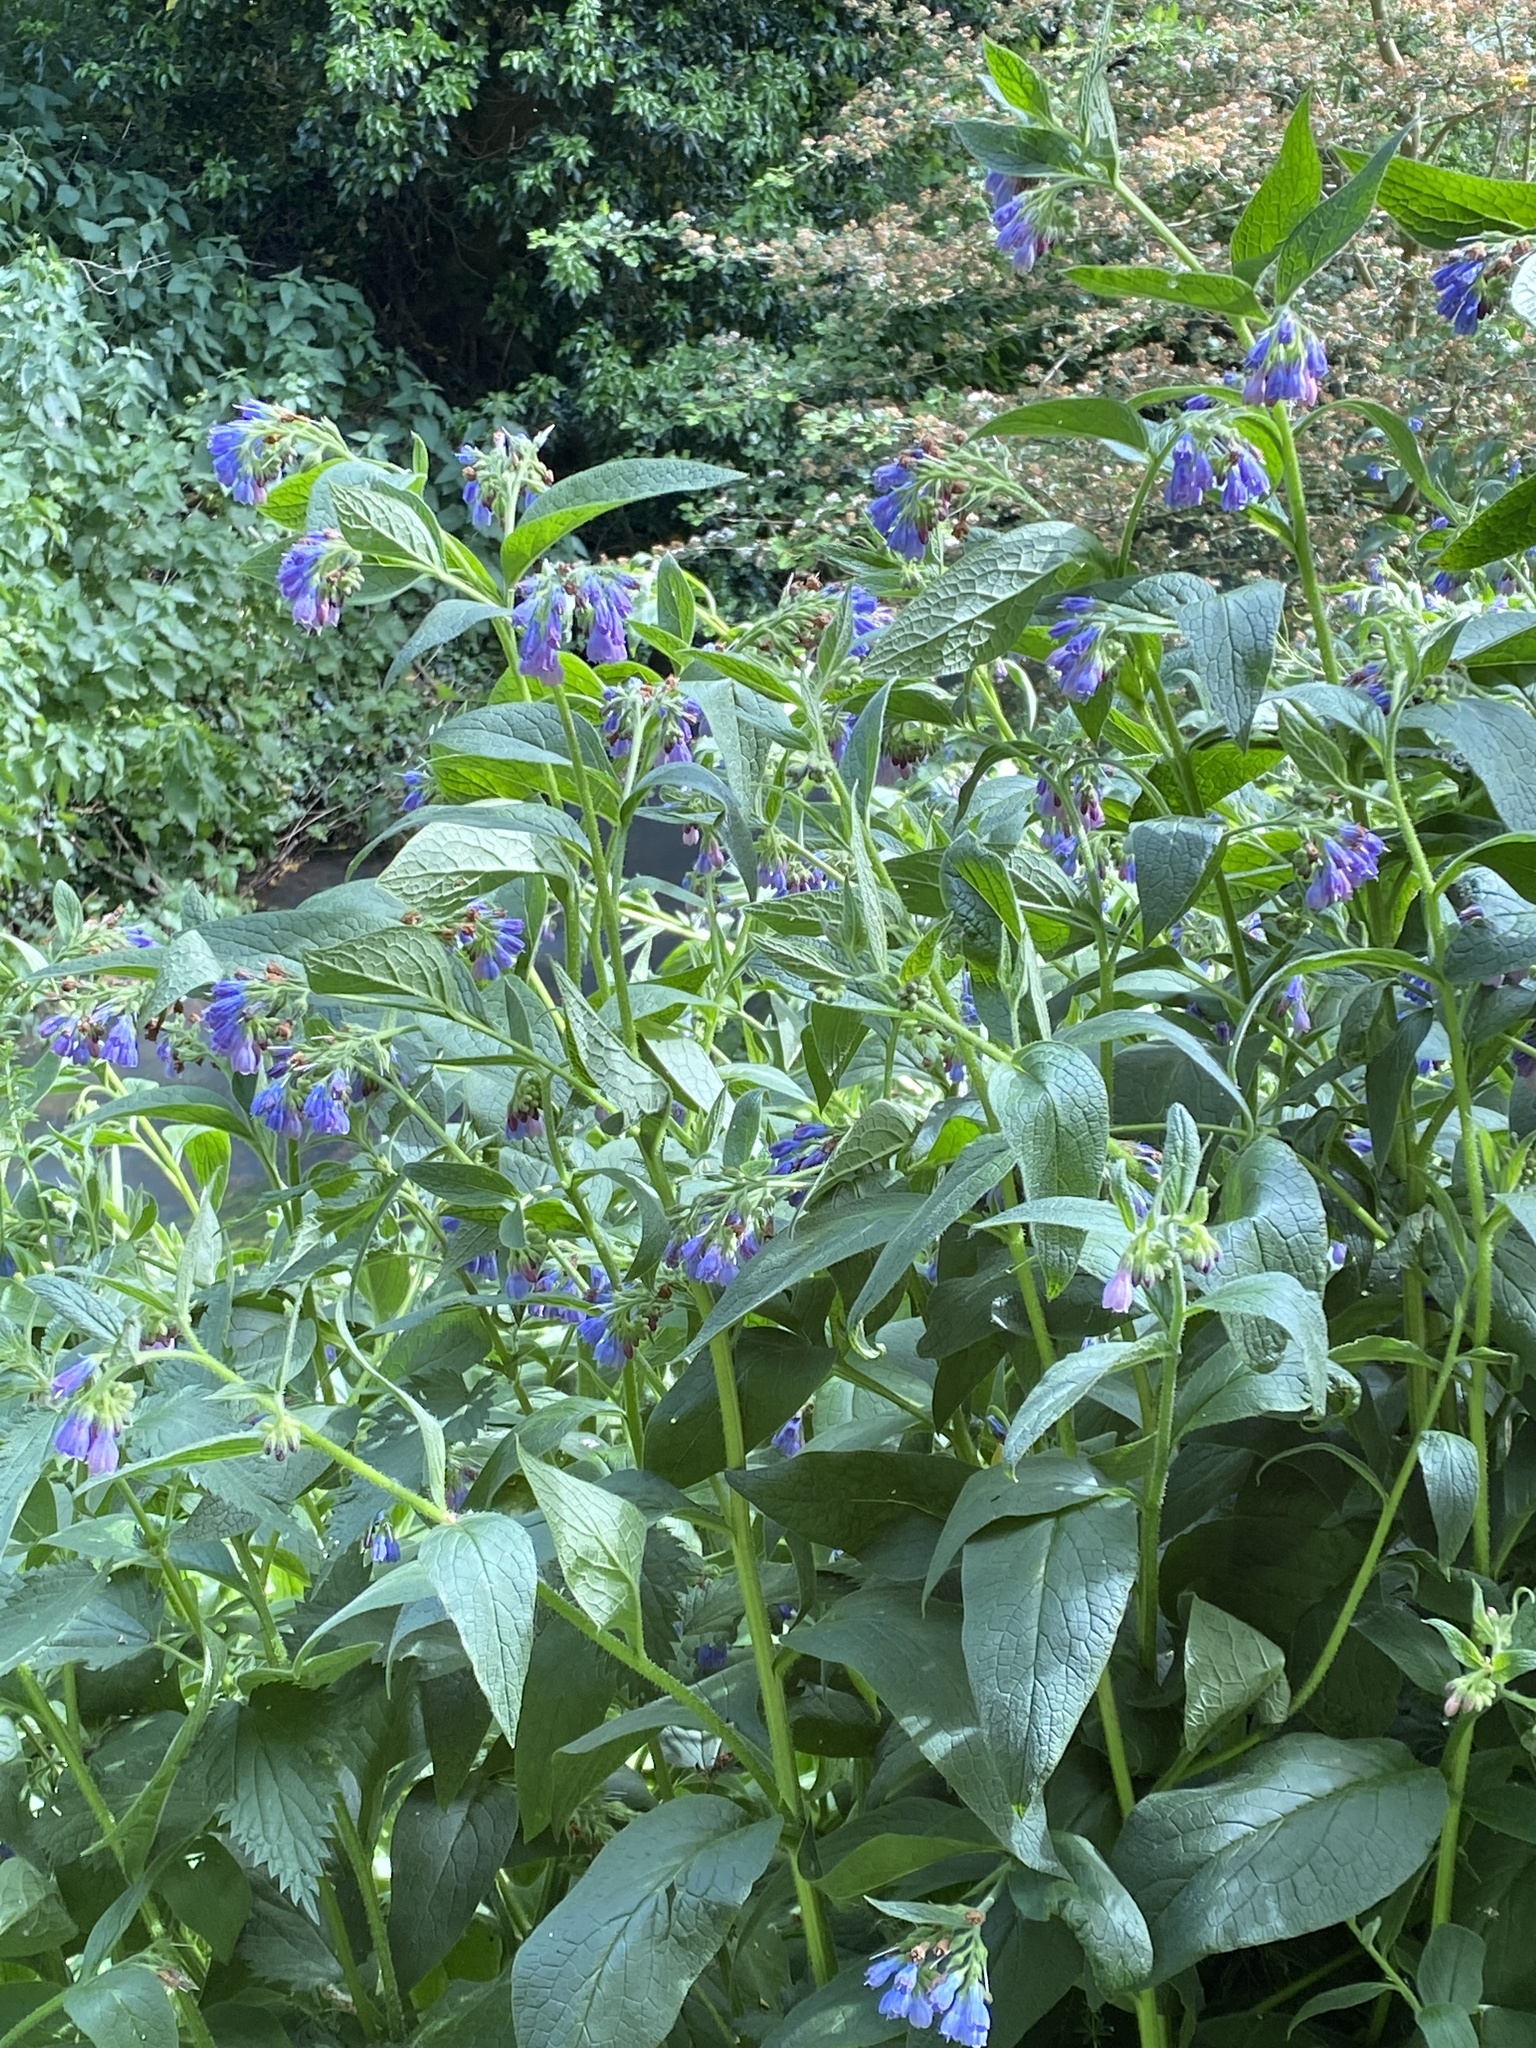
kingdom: Plantae
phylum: Tracheophyta
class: Magnoliopsida
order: Boraginales
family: Boraginaceae
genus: Symphytum
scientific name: Symphytum officinale
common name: Common comfrey
